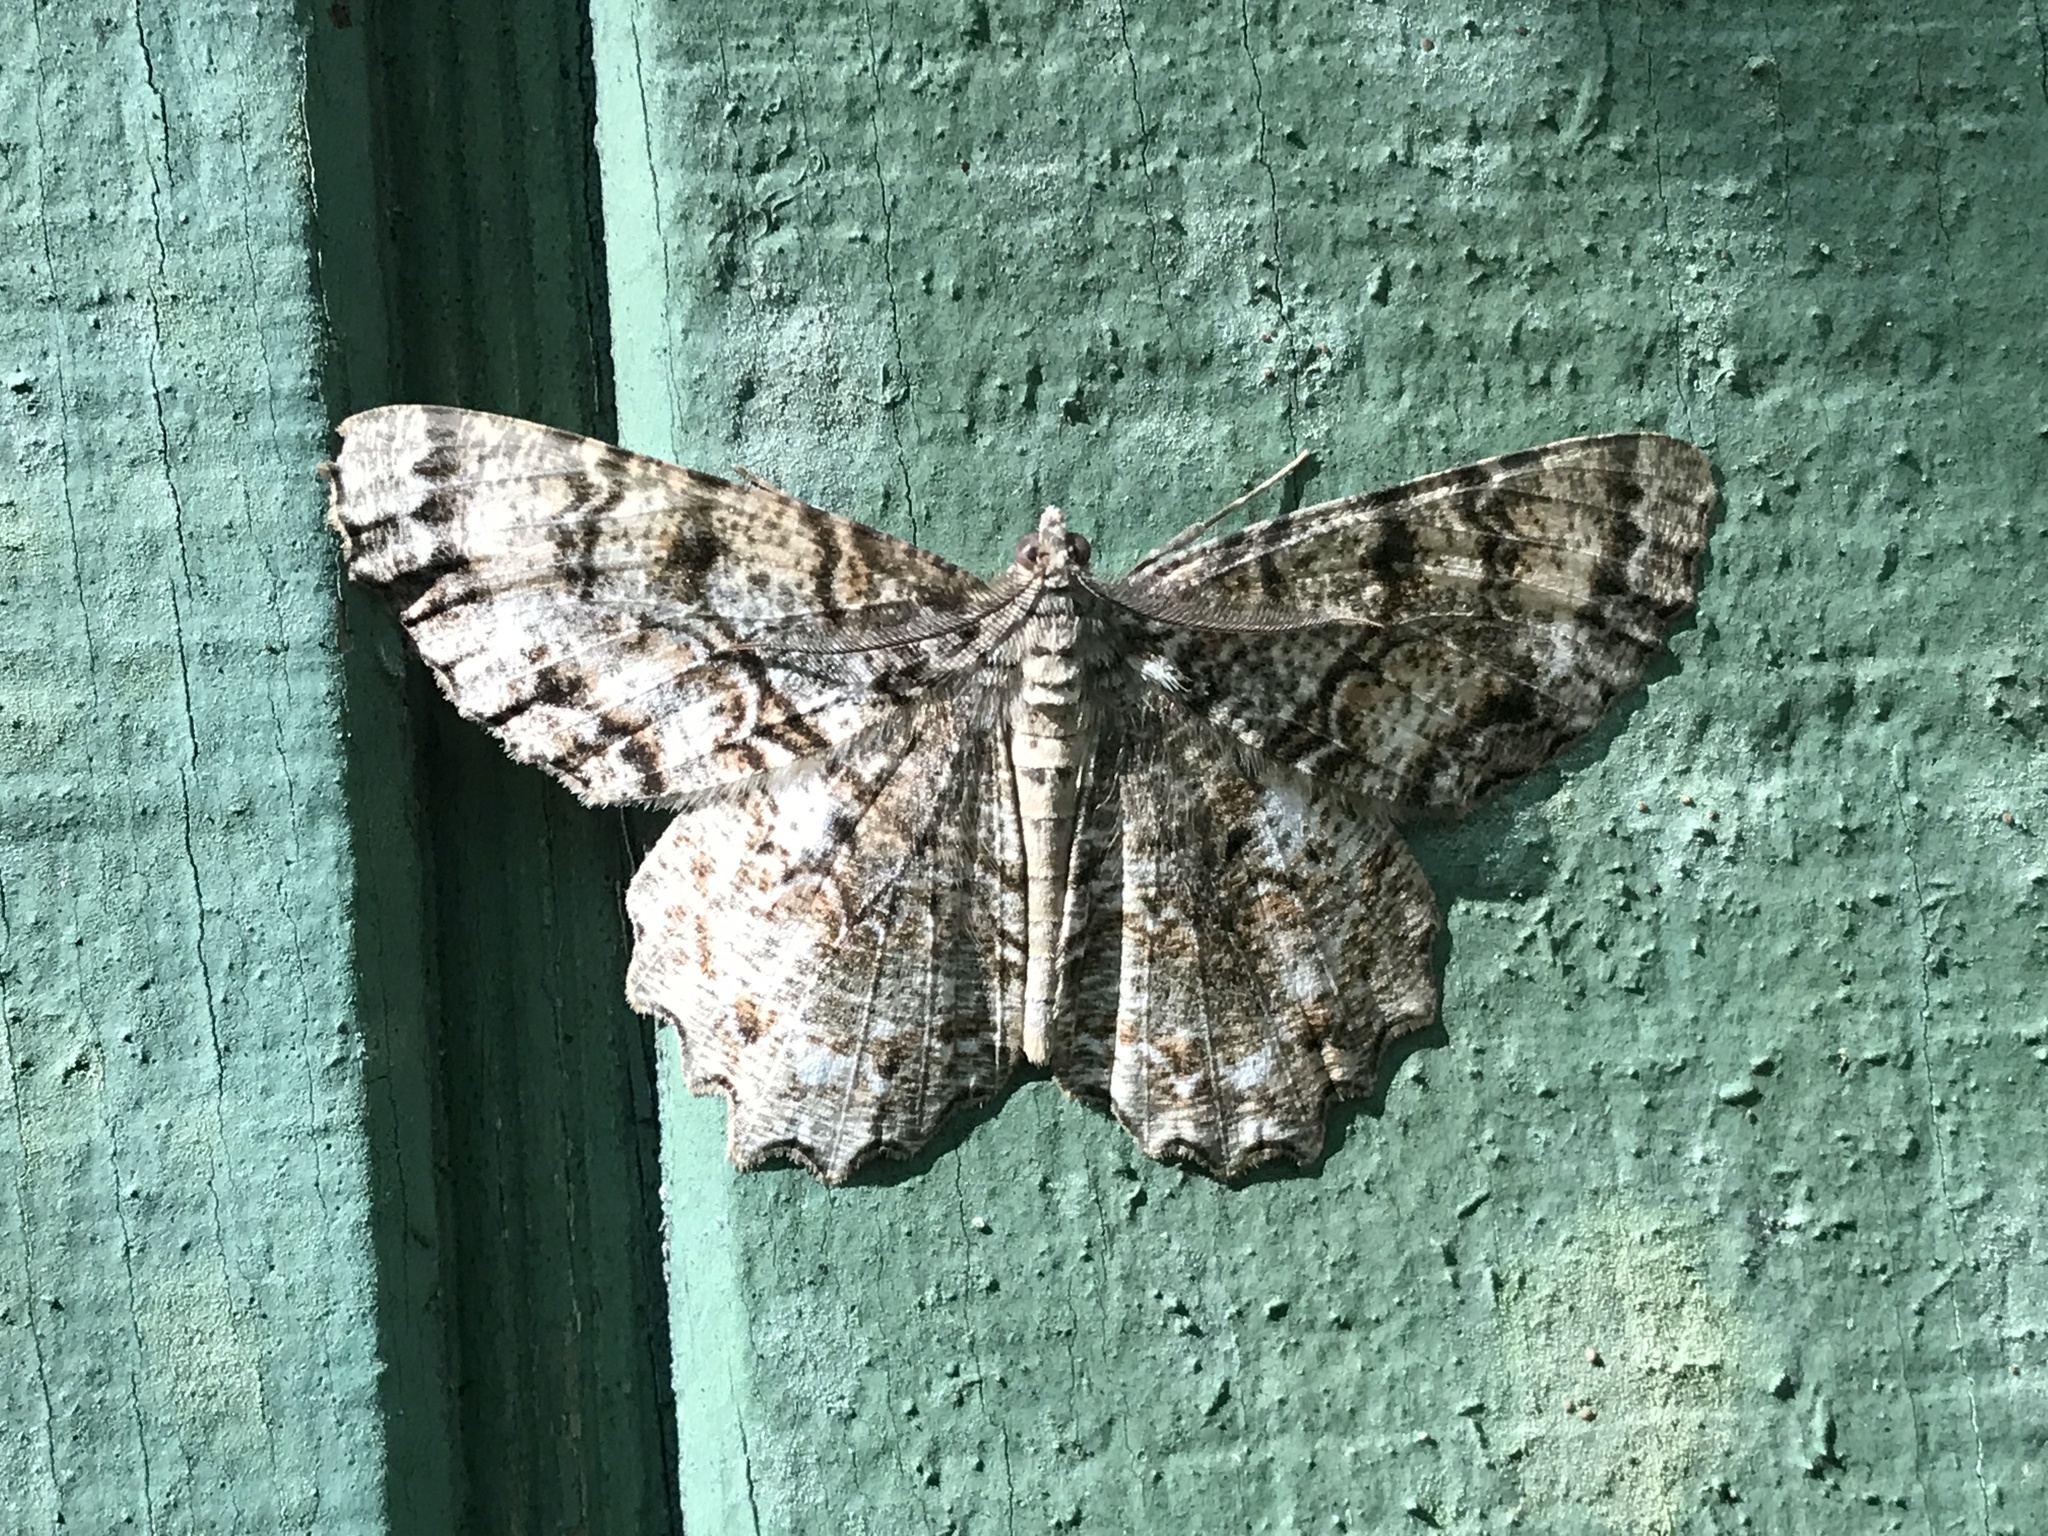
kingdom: Animalia
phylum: Arthropoda
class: Insecta
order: Lepidoptera
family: Geometridae
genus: Epimecis
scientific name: Epimecis hortaria
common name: Tulip-tree beauty
